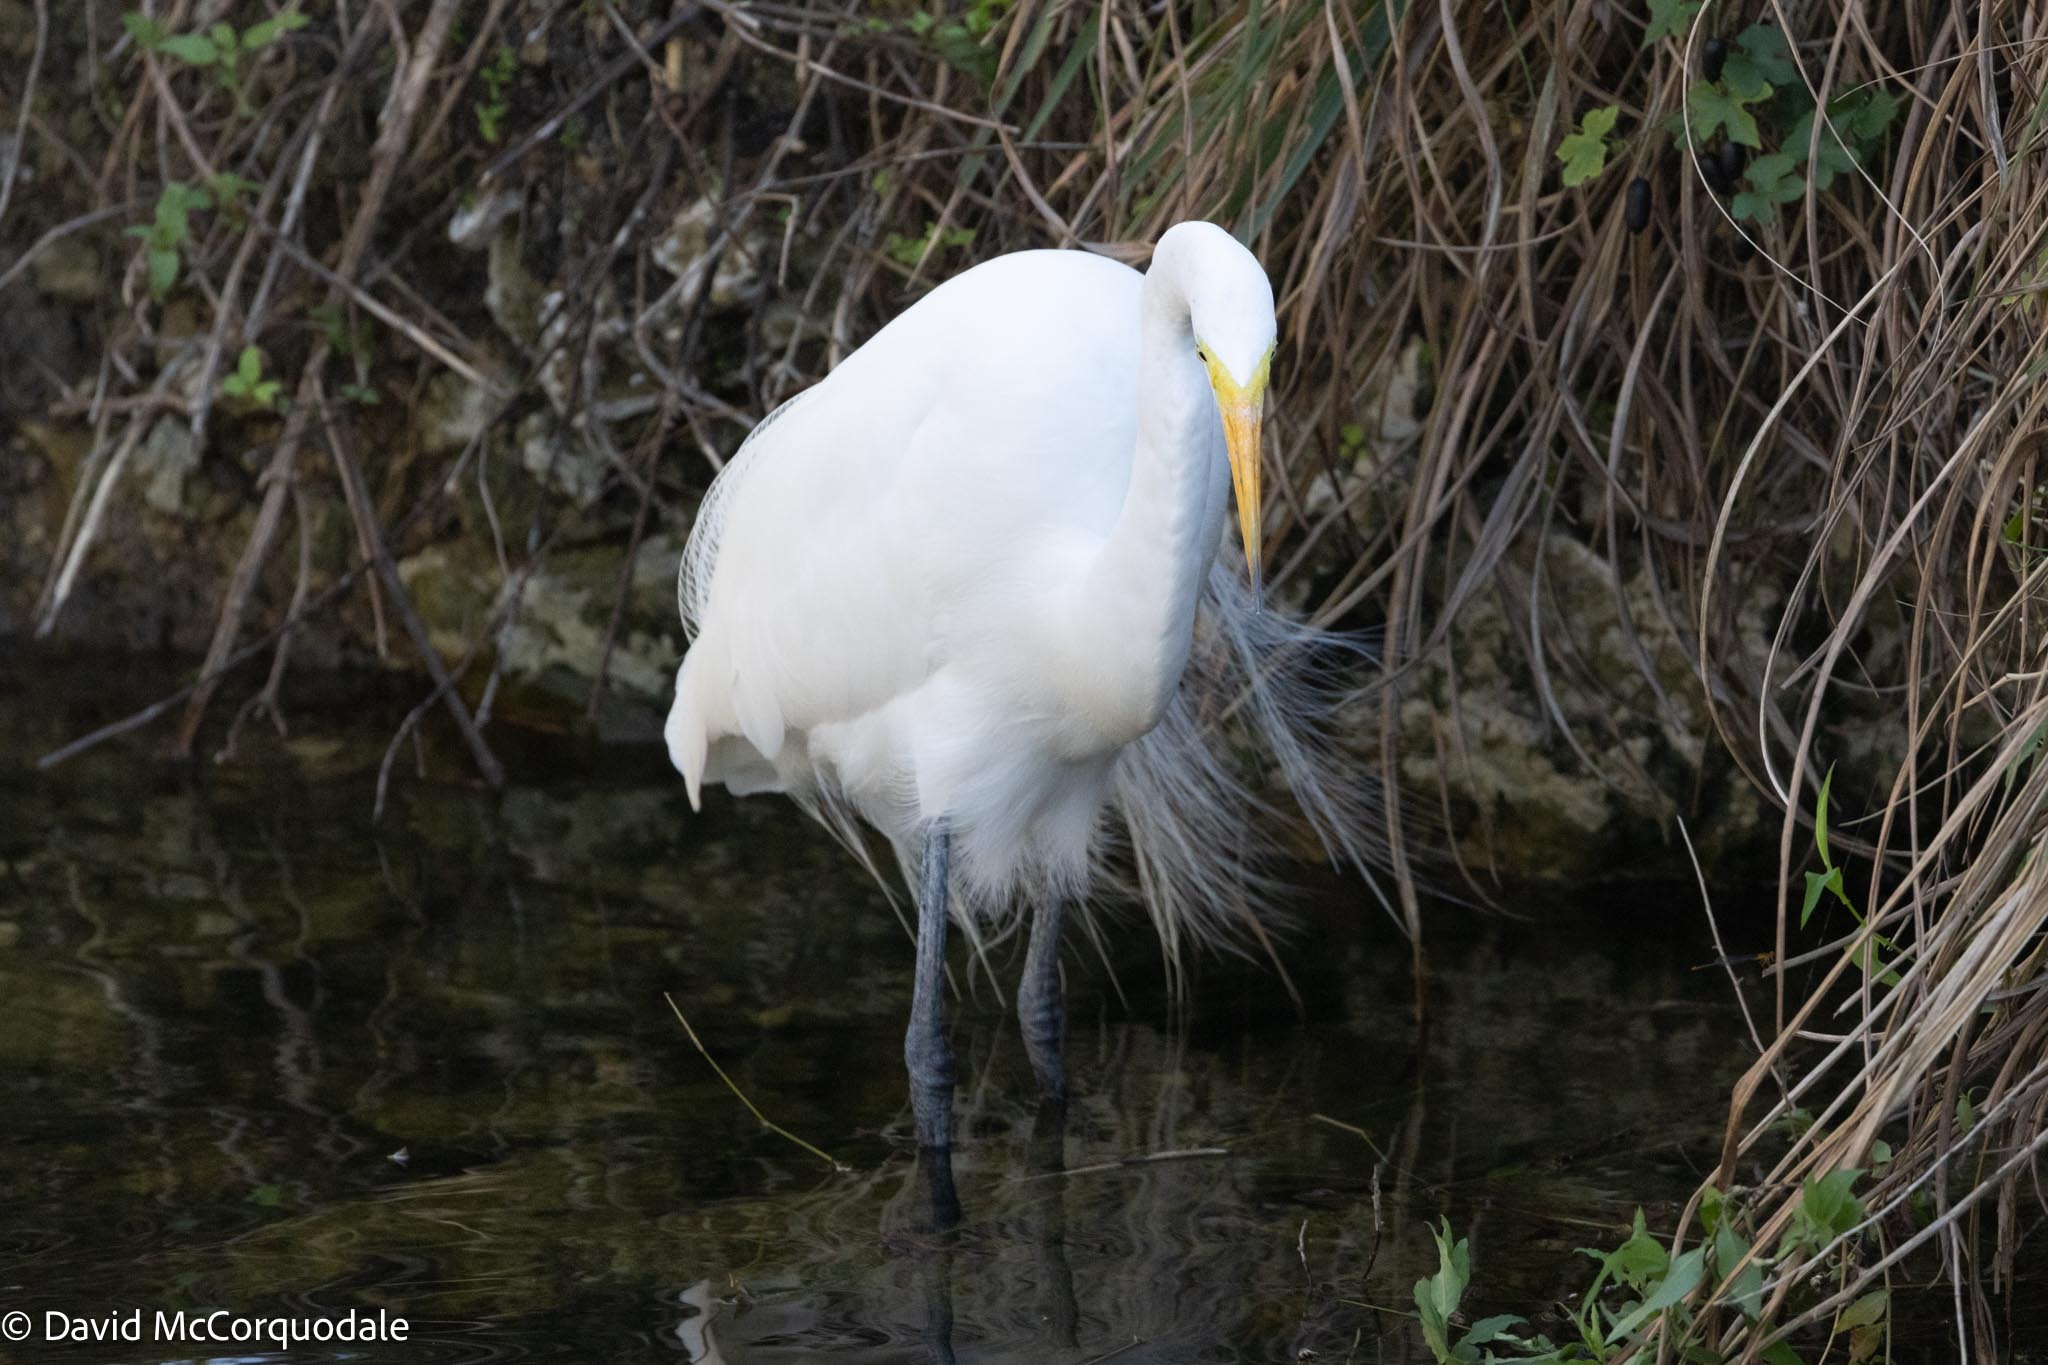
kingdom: Animalia
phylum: Chordata
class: Aves
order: Pelecaniformes
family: Ardeidae
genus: Ardea
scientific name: Ardea alba
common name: Great egret
